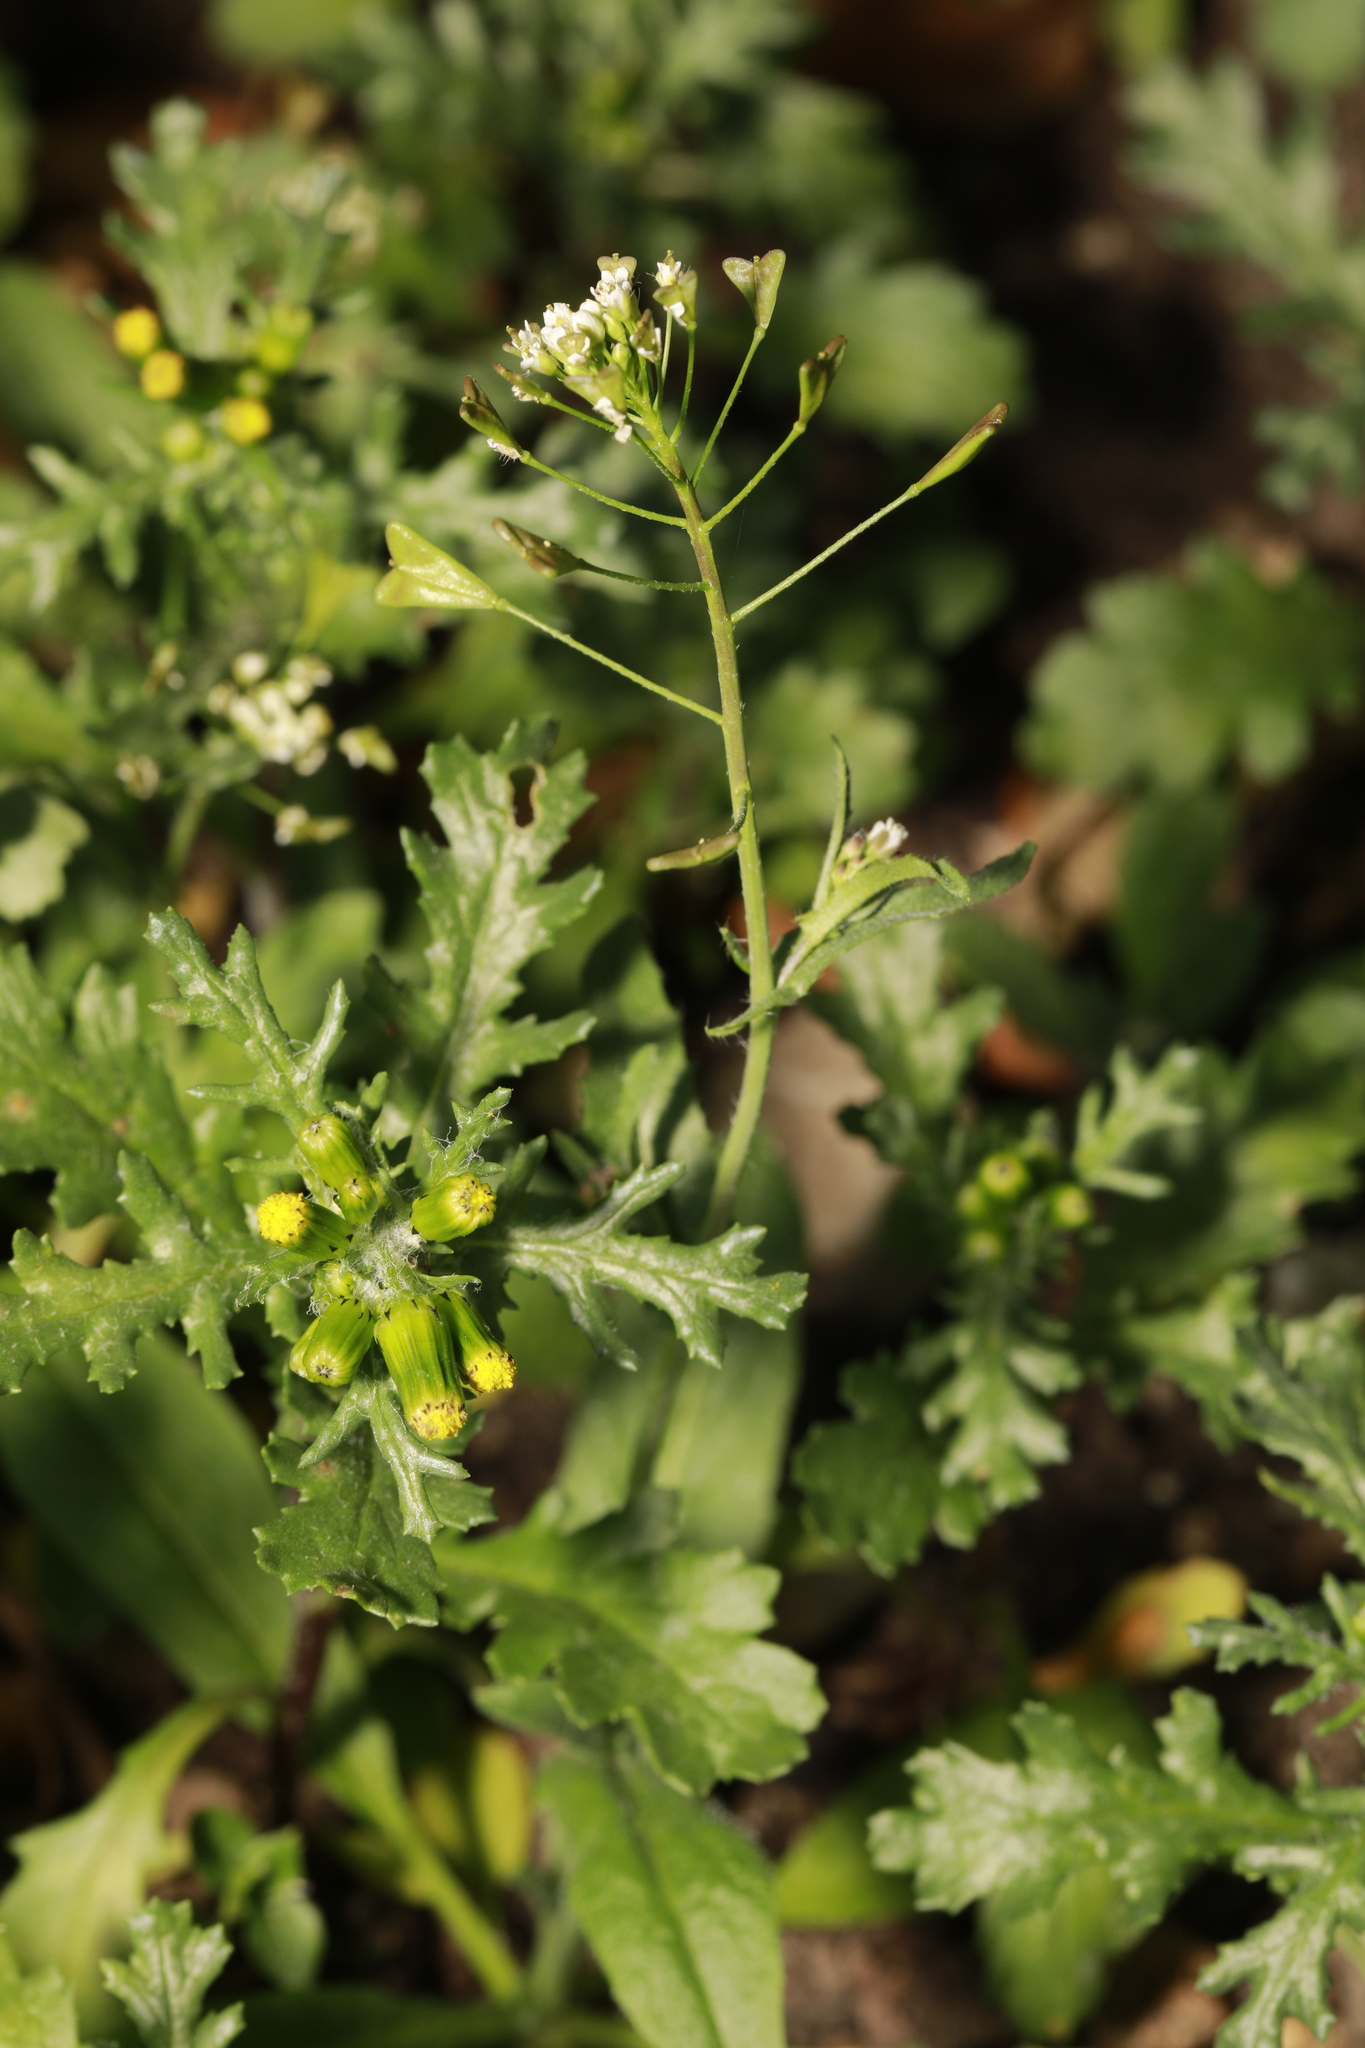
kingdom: Plantae
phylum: Tracheophyta
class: Magnoliopsida
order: Brassicales
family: Brassicaceae
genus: Capsella
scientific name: Capsella bursa-pastoris
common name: Shepherd's purse
